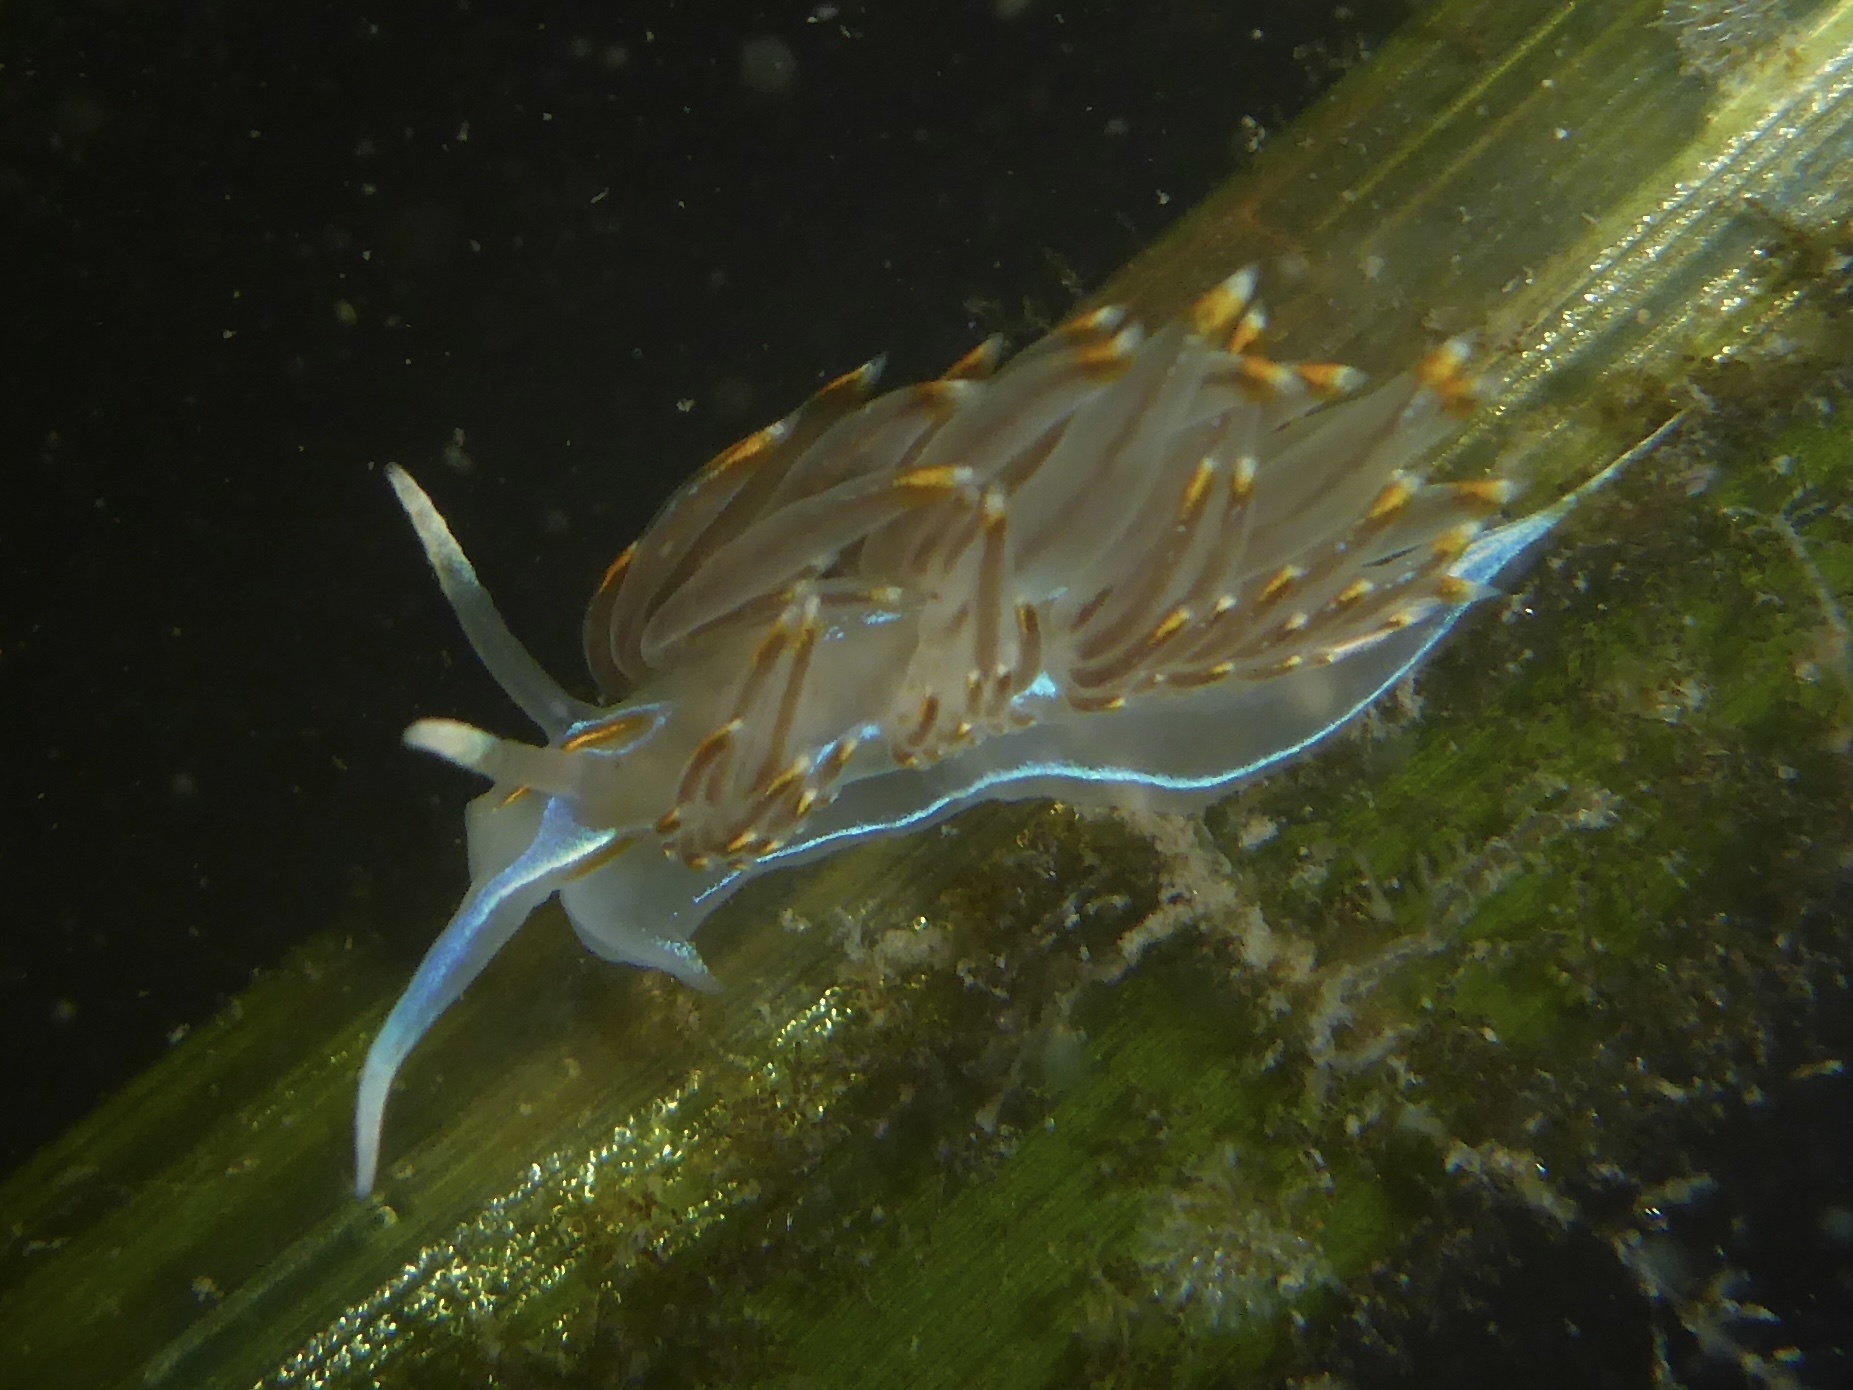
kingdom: Animalia
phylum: Mollusca
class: Gastropoda
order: Nudibranchia
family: Myrrhinidae
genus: Hermissenda
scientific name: Hermissenda opalescens
